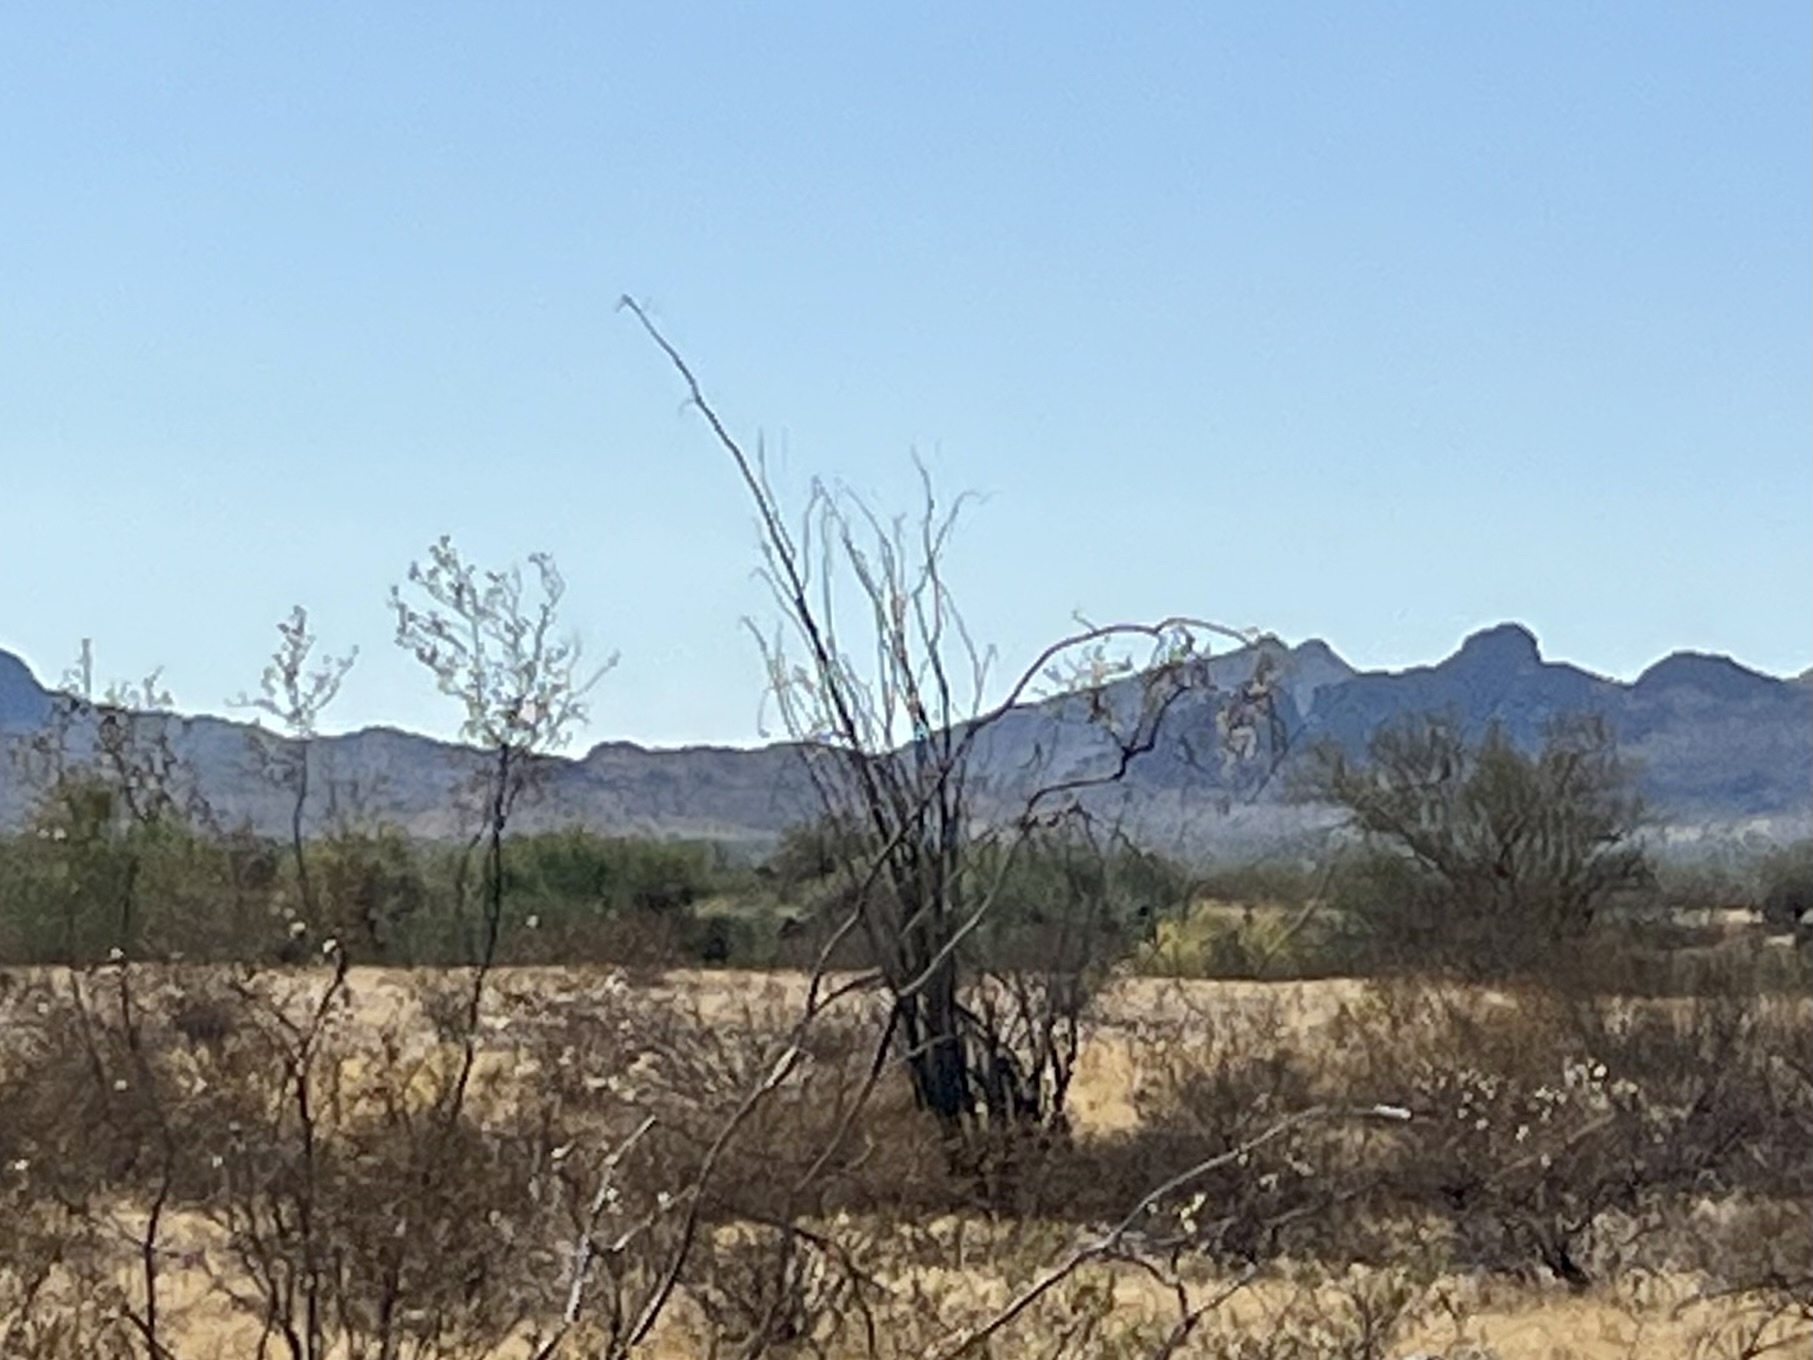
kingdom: Plantae
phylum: Tracheophyta
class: Magnoliopsida
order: Ericales
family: Fouquieriaceae
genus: Fouquieria
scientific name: Fouquieria splendens
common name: Vine-cactus
